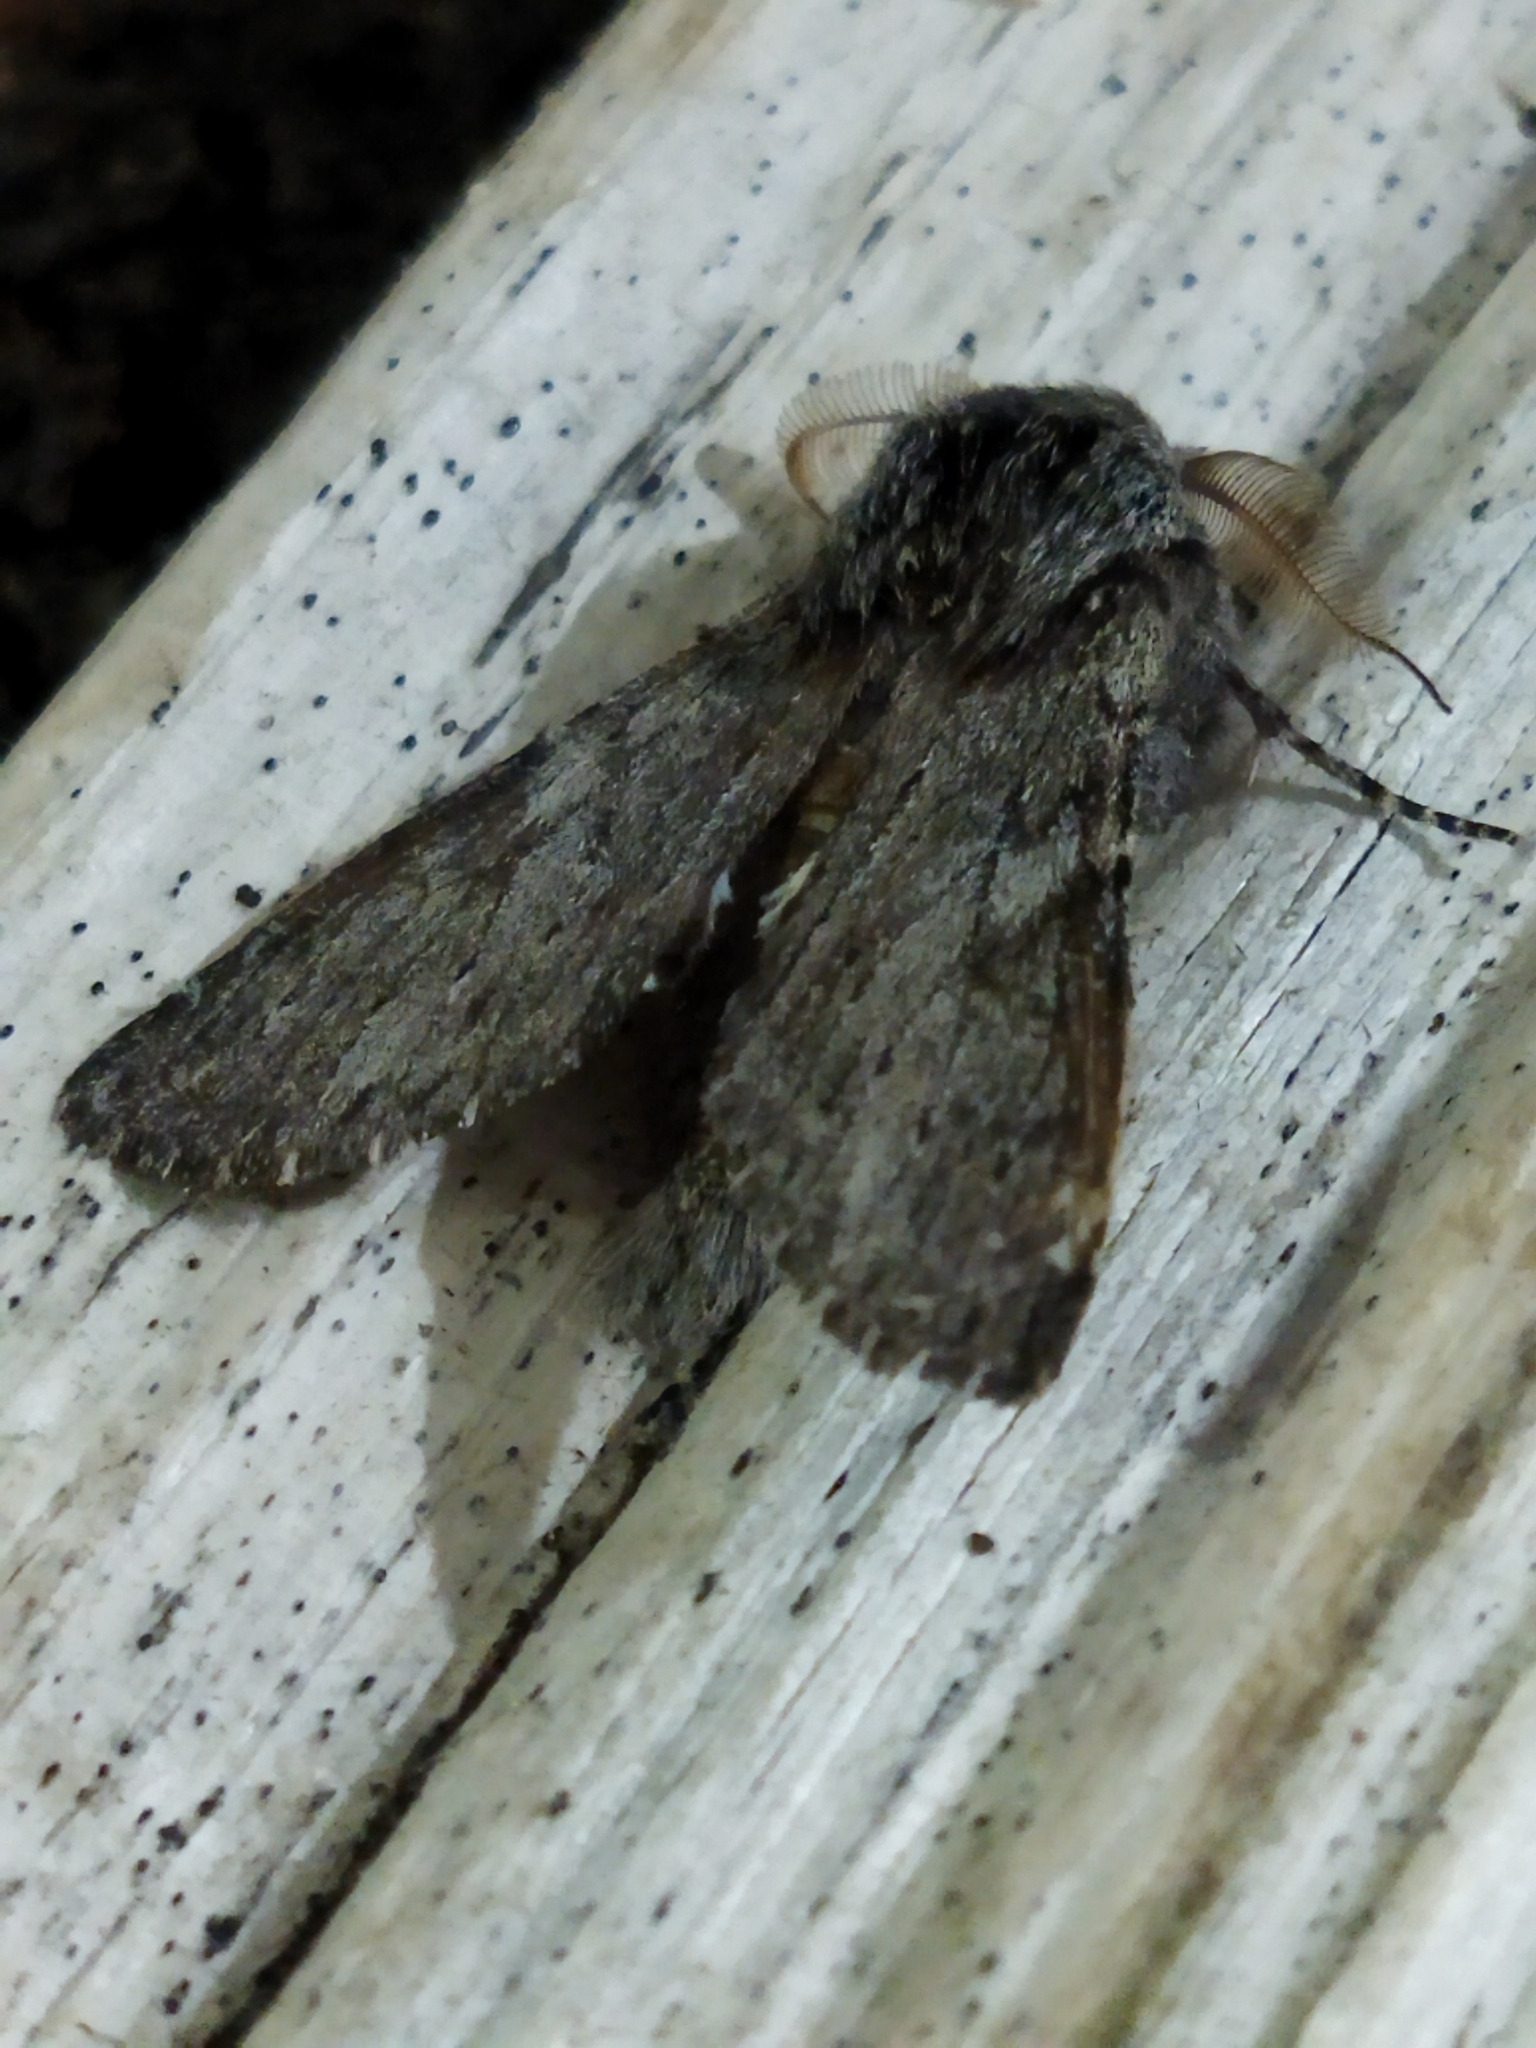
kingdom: Animalia
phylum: Arthropoda
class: Insecta
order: Lepidoptera
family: Notodontidae
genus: Dicranura
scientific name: Dicranura ulmi
